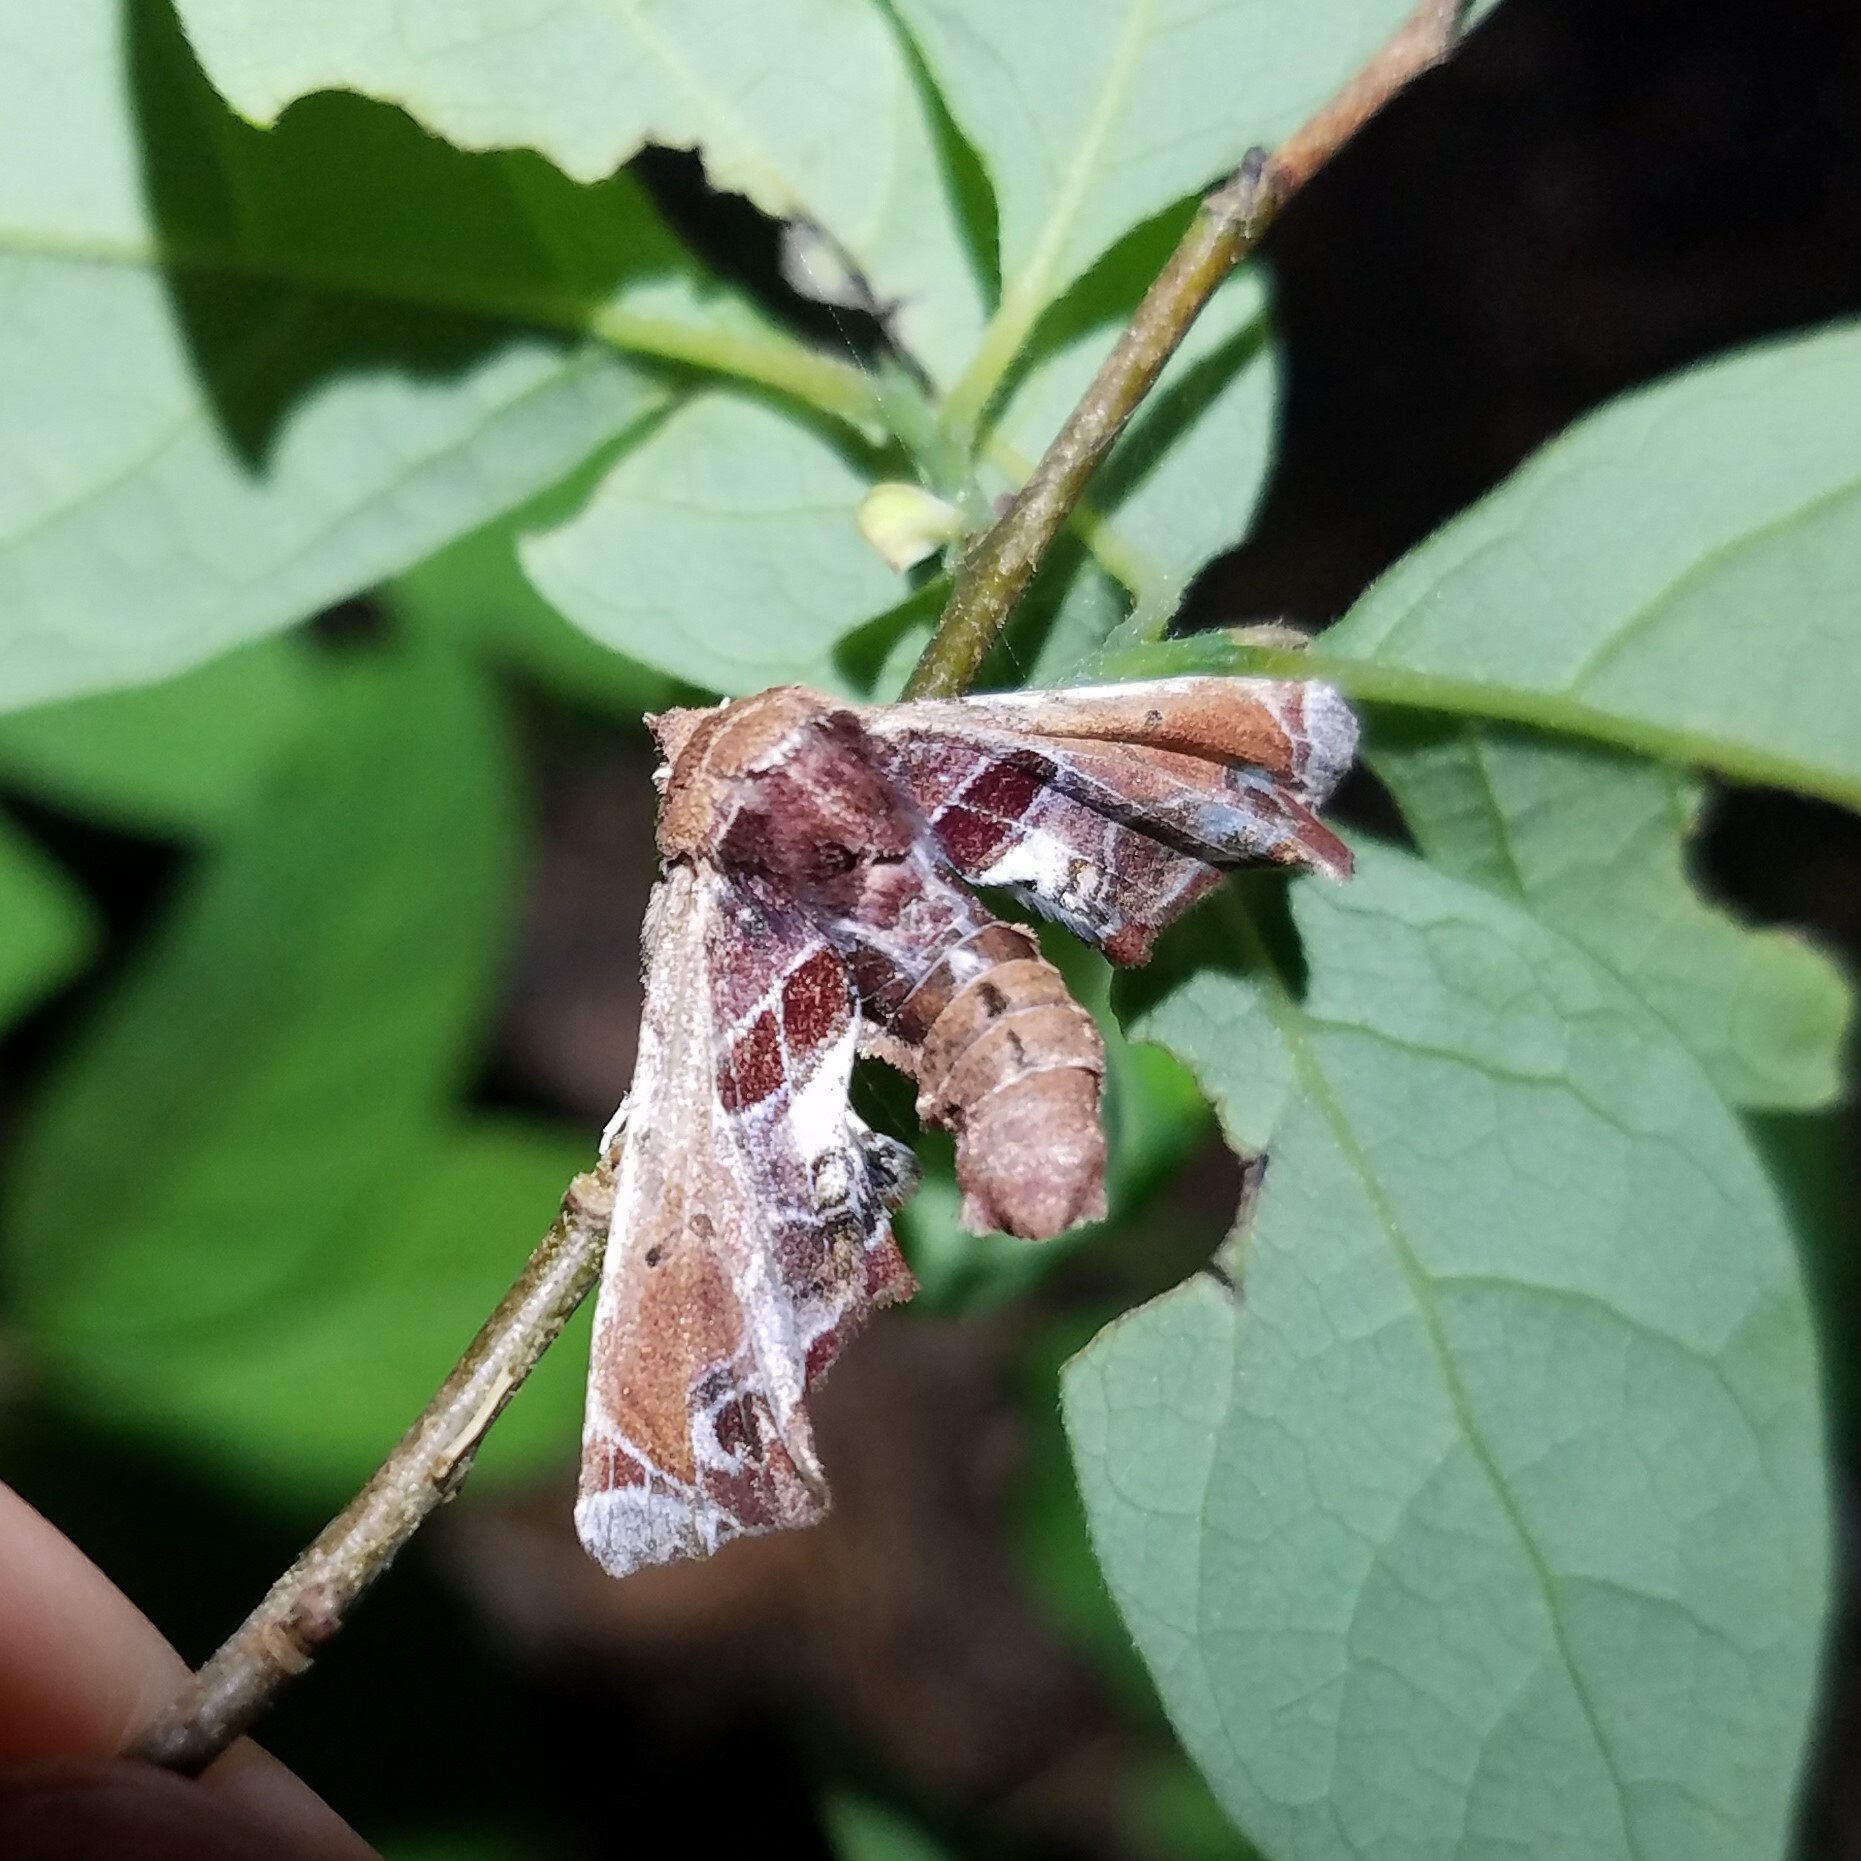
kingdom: Animalia
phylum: Arthropoda
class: Insecta
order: Lepidoptera
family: Euteliidae
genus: Eutelia
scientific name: Eutelia pulcherrimus
